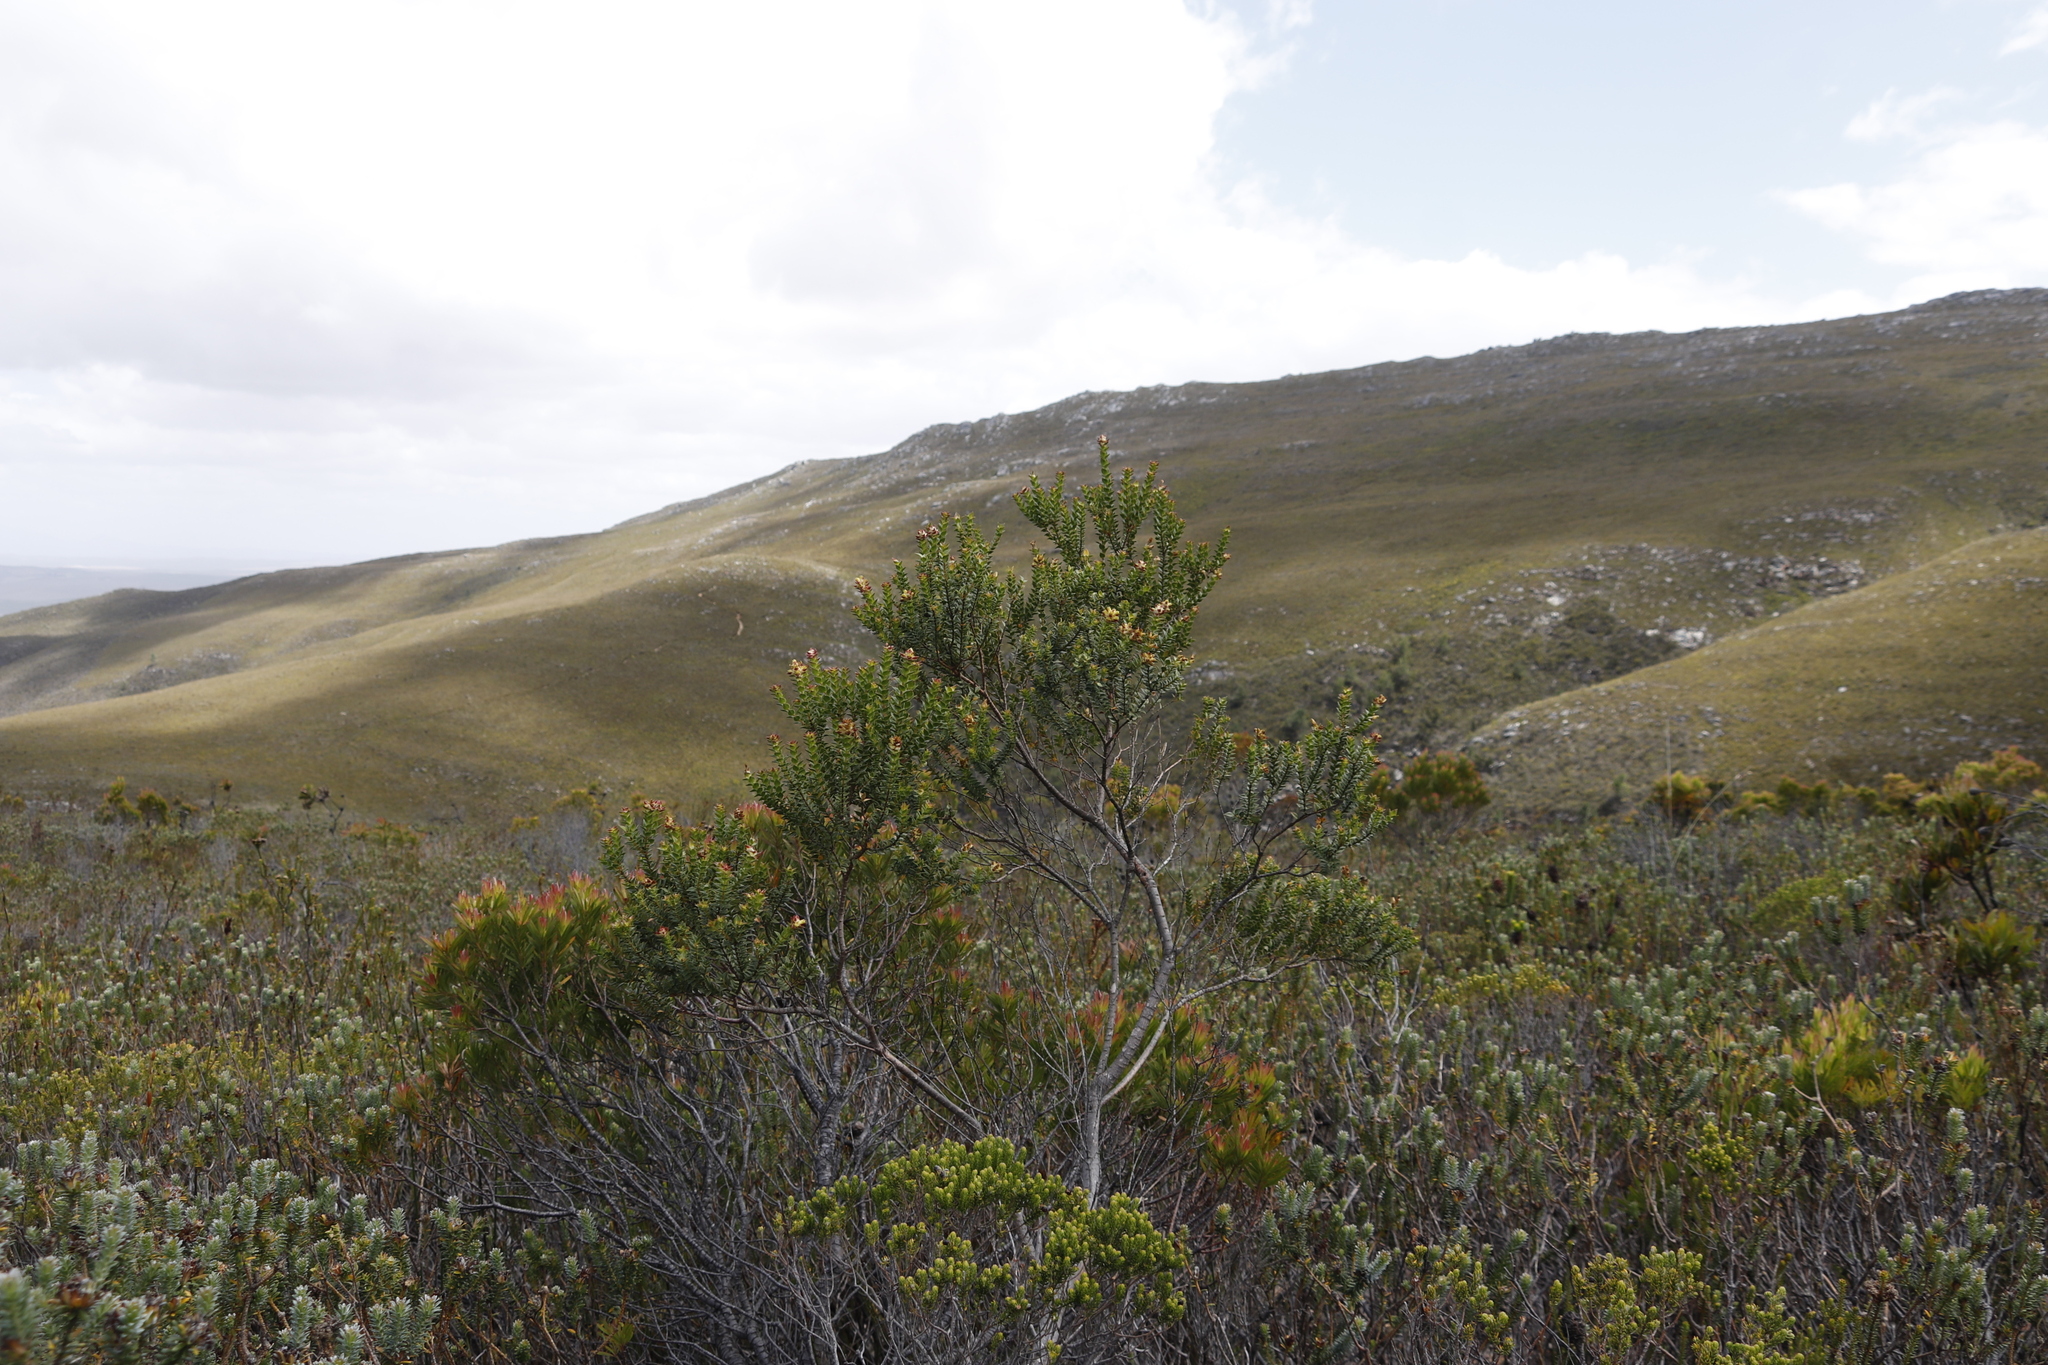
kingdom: Plantae
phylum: Tracheophyta
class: Magnoliopsida
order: Myrtales
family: Penaeaceae
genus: Penaea
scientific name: Penaea cneorum
